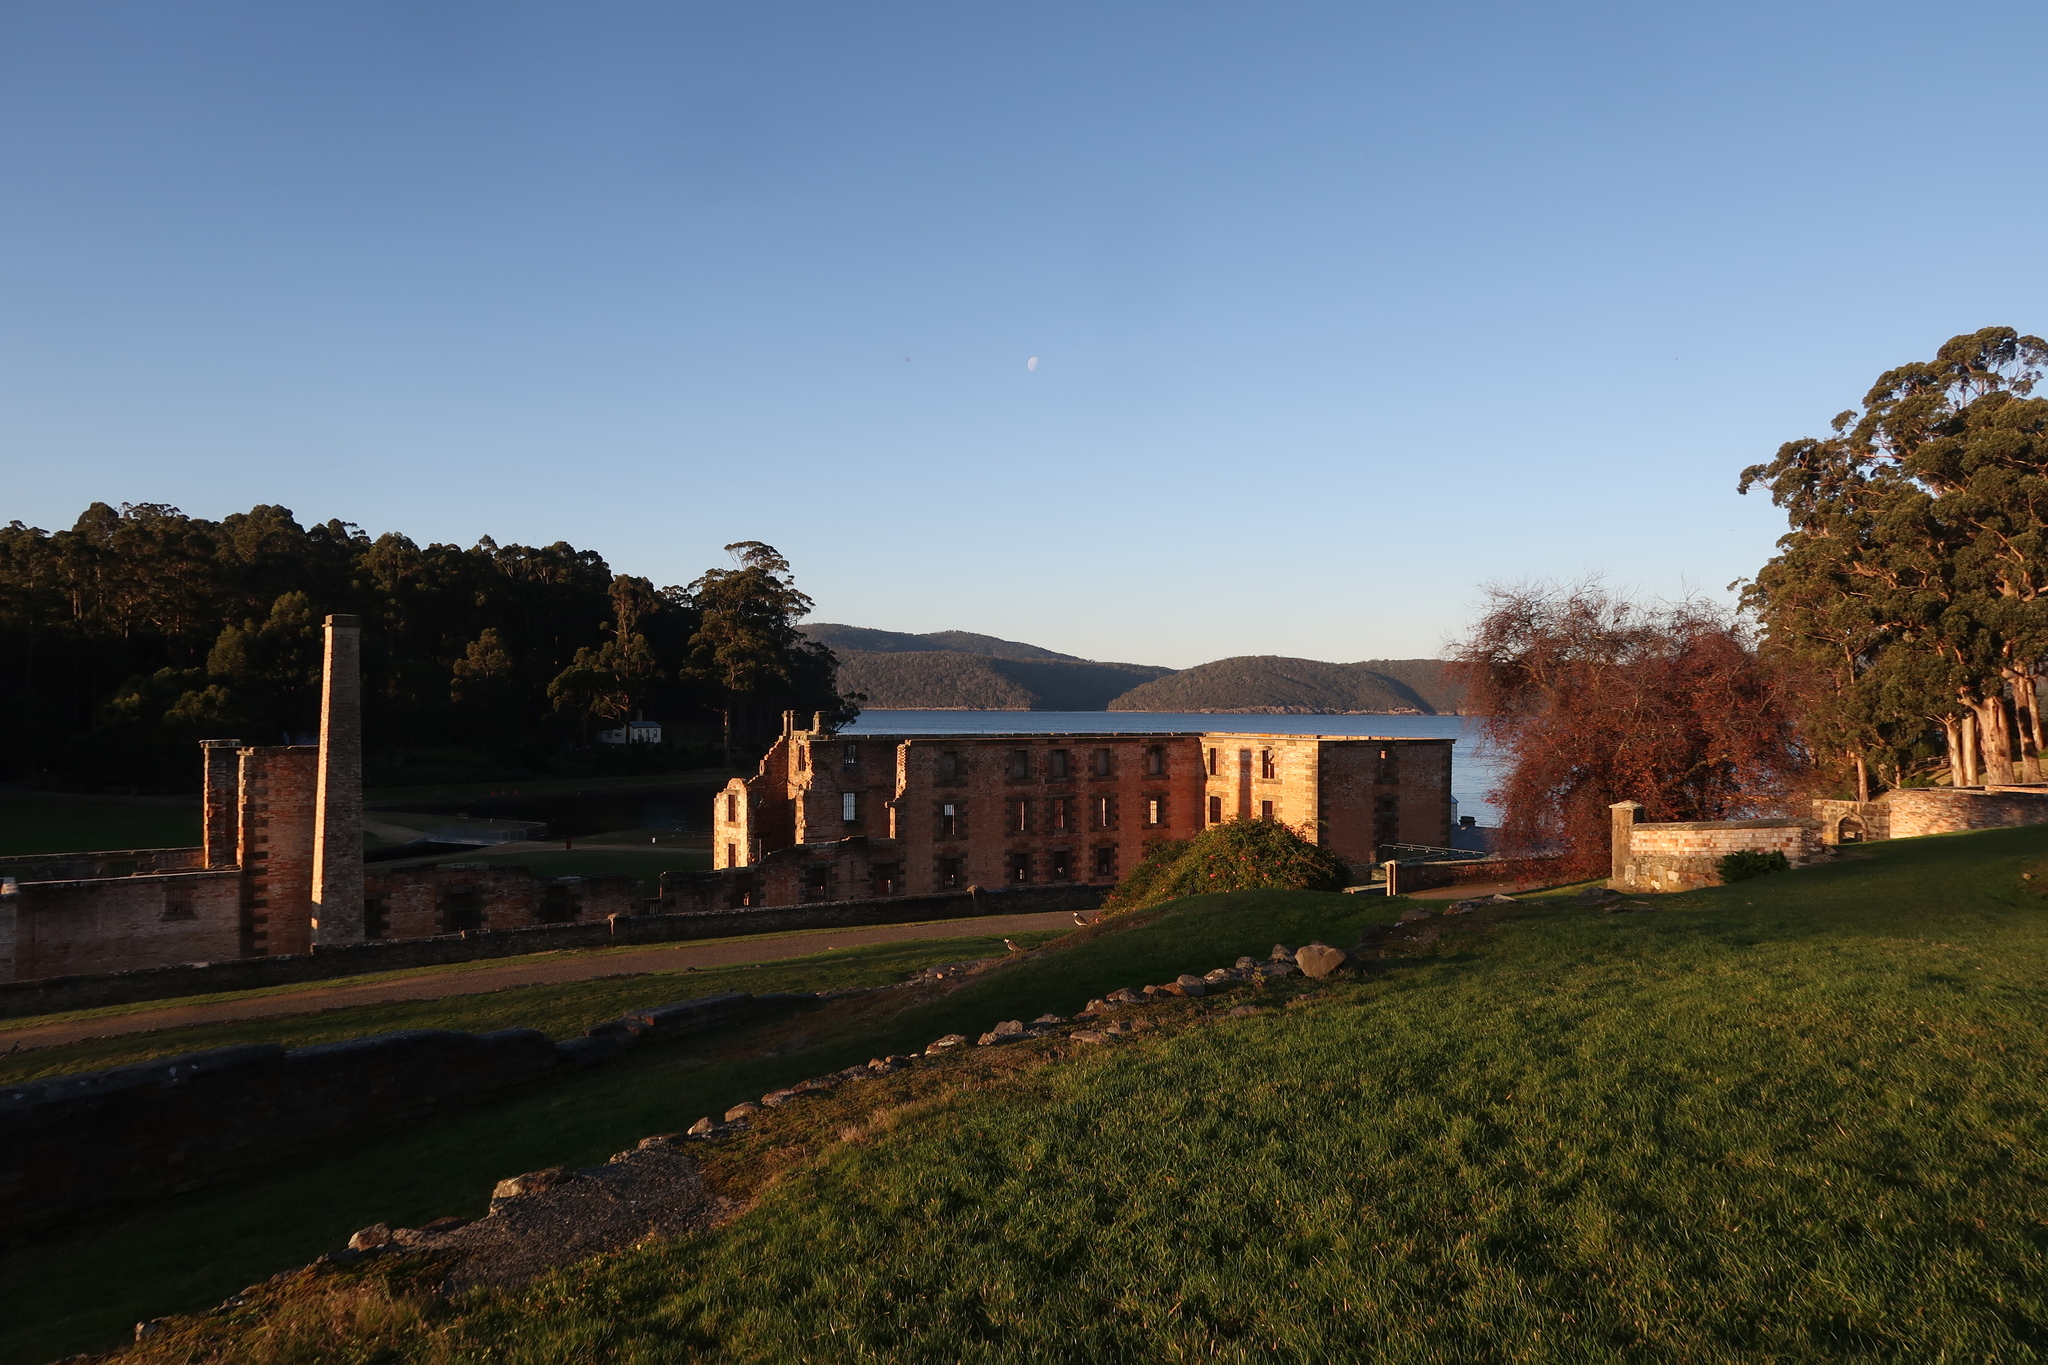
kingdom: Animalia
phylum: Chordata
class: Aves
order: Charadriiformes
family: Charadriidae
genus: Vanellus
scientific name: Vanellus miles
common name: Masked lapwing
